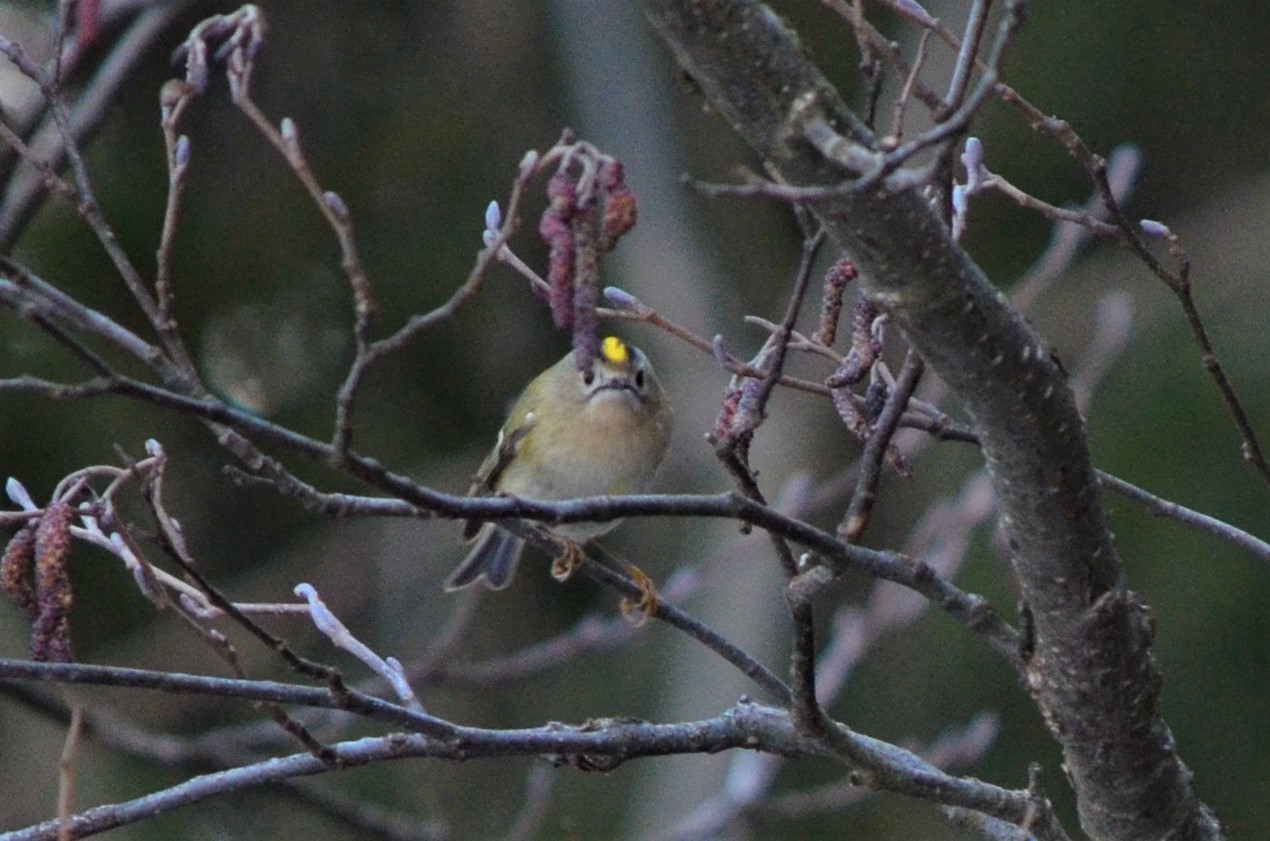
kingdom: Animalia
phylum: Chordata
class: Aves
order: Passeriformes
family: Regulidae
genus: Regulus
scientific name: Regulus regulus
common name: Goldcrest
